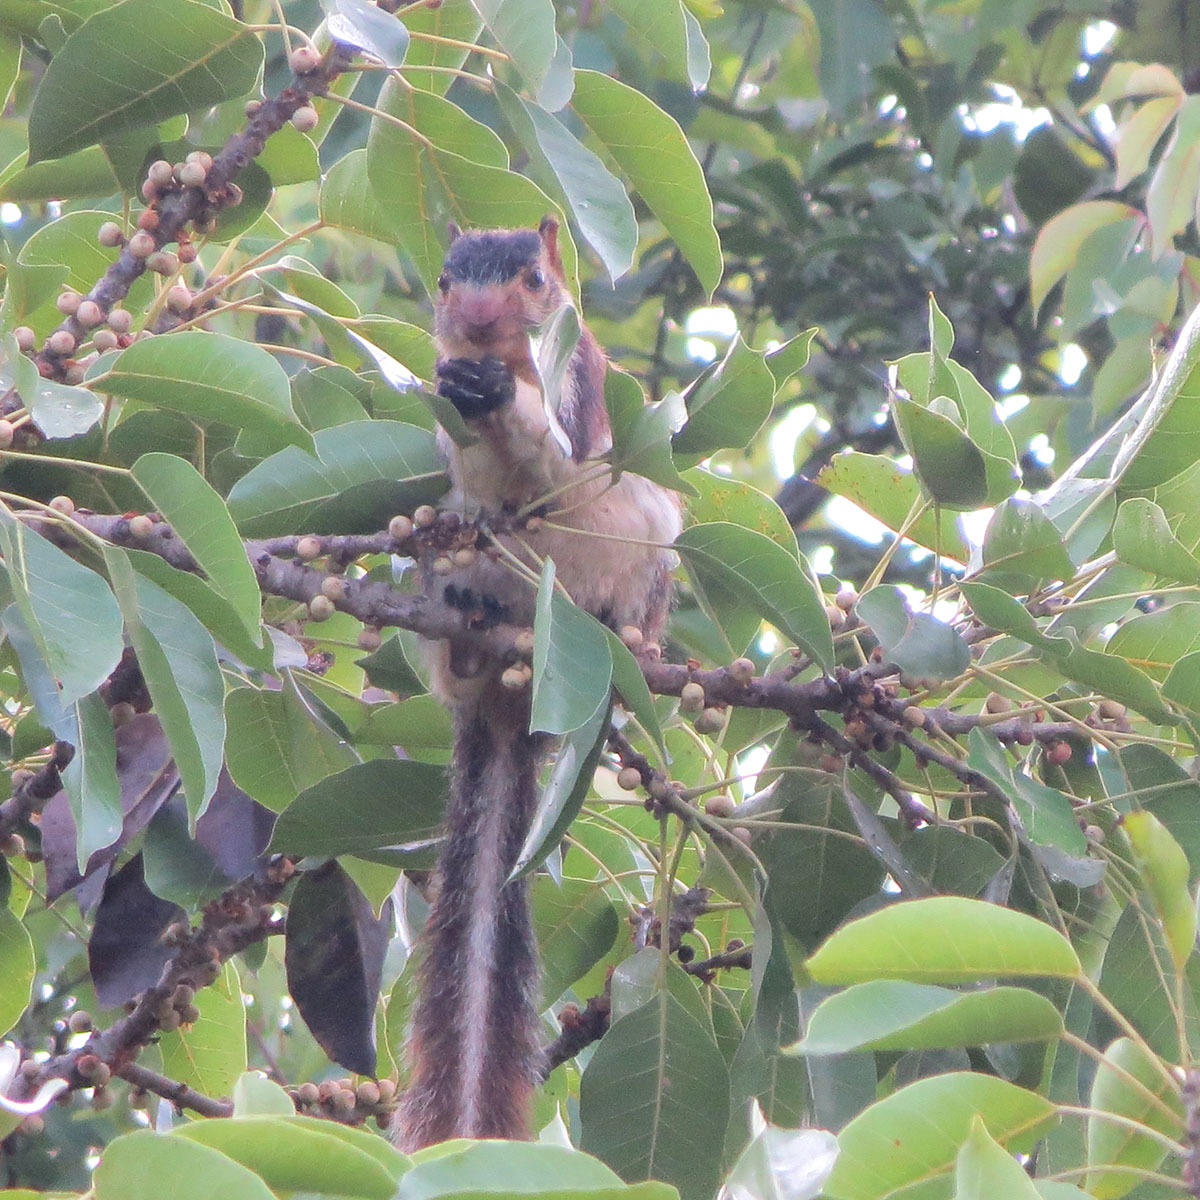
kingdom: Animalia
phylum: Chordata
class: Mammalia
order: Rodentia
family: Sciuridae
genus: Ratufa
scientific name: Ratufa macroura
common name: Sri lankan giant squirrel
